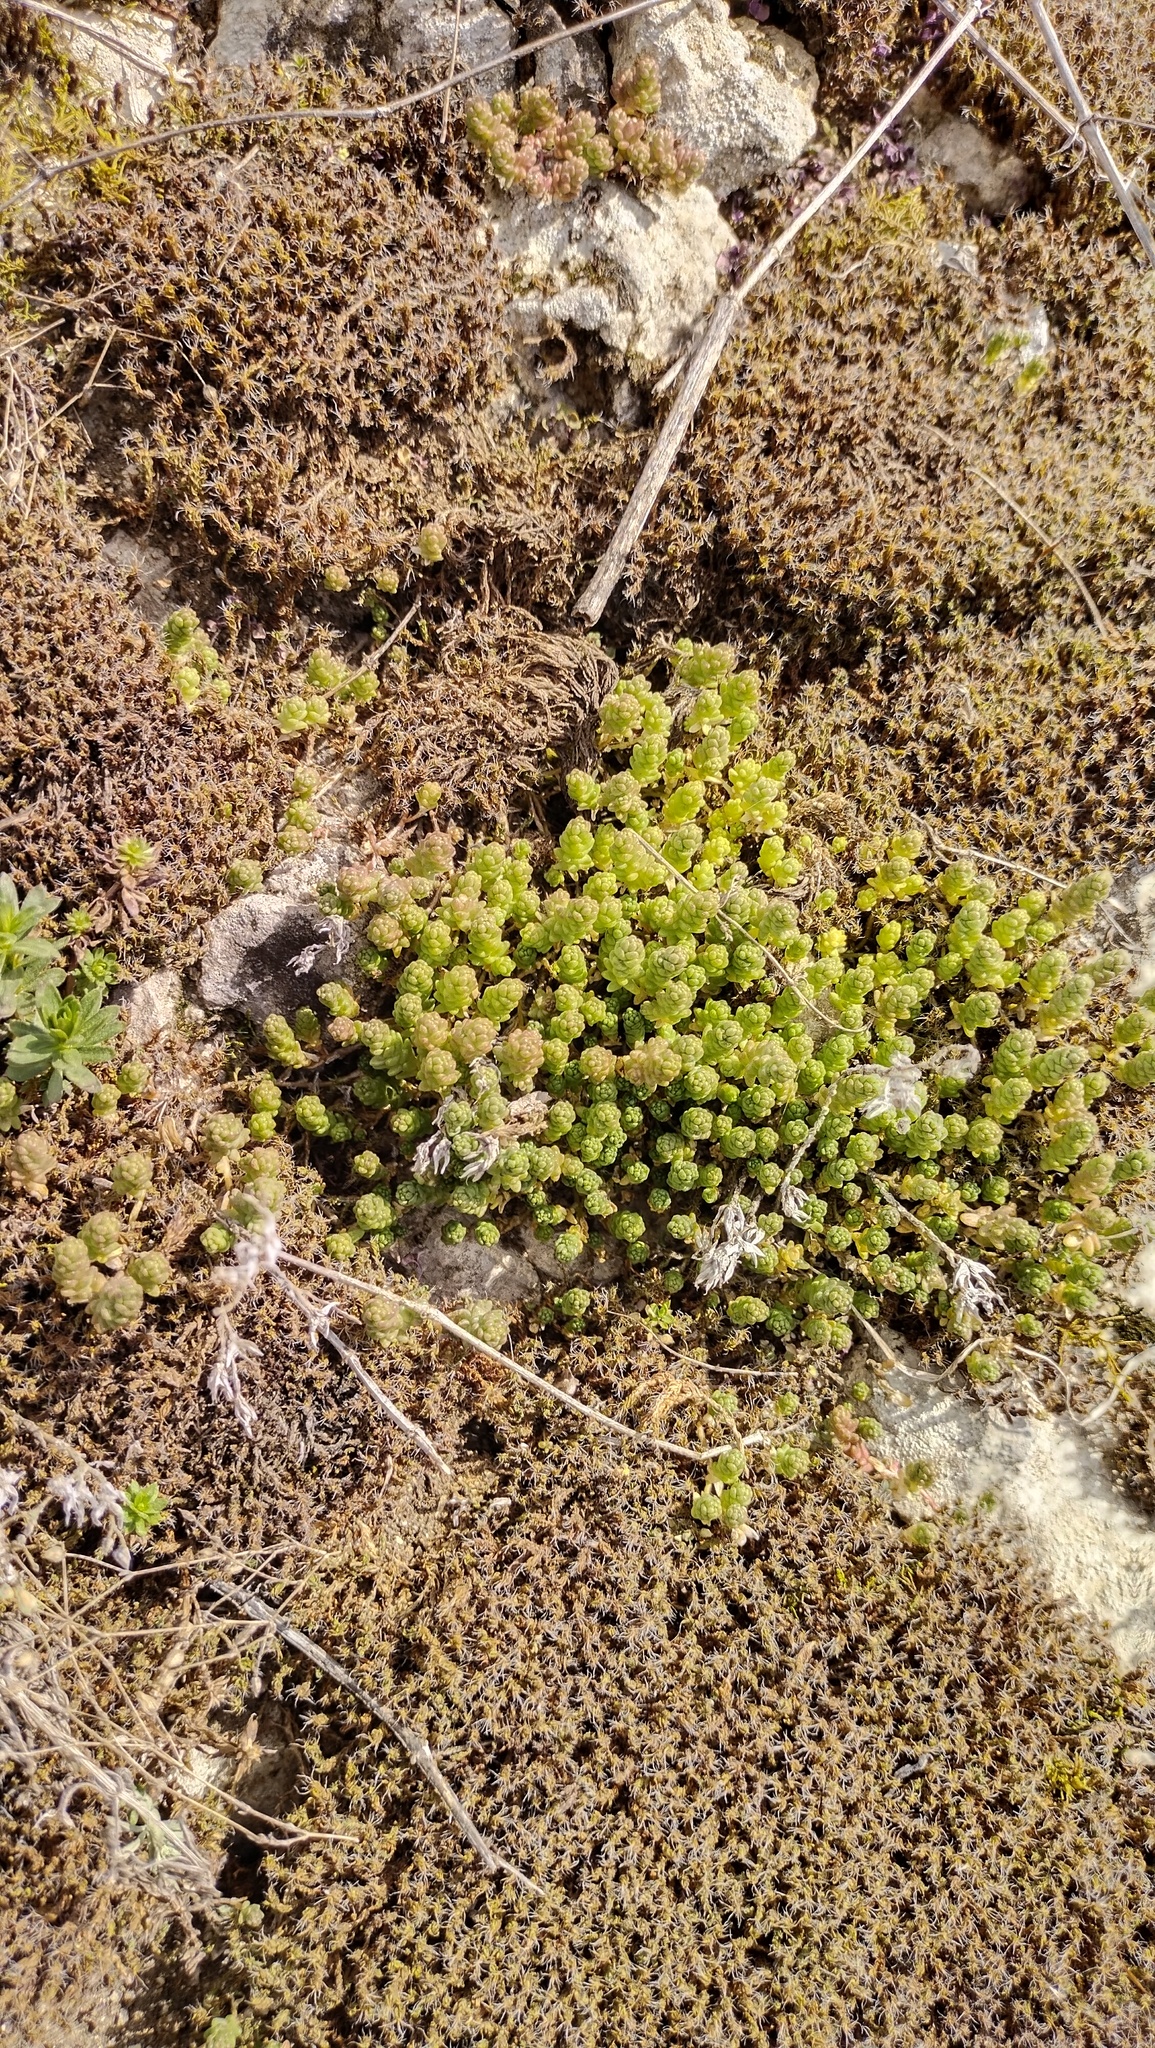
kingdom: Plantae
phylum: Tracheophyta
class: Magnoliopsida
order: Saxifragales
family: Crassulaceae
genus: Sedum
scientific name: Sedum acre
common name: Biting stonecrop
